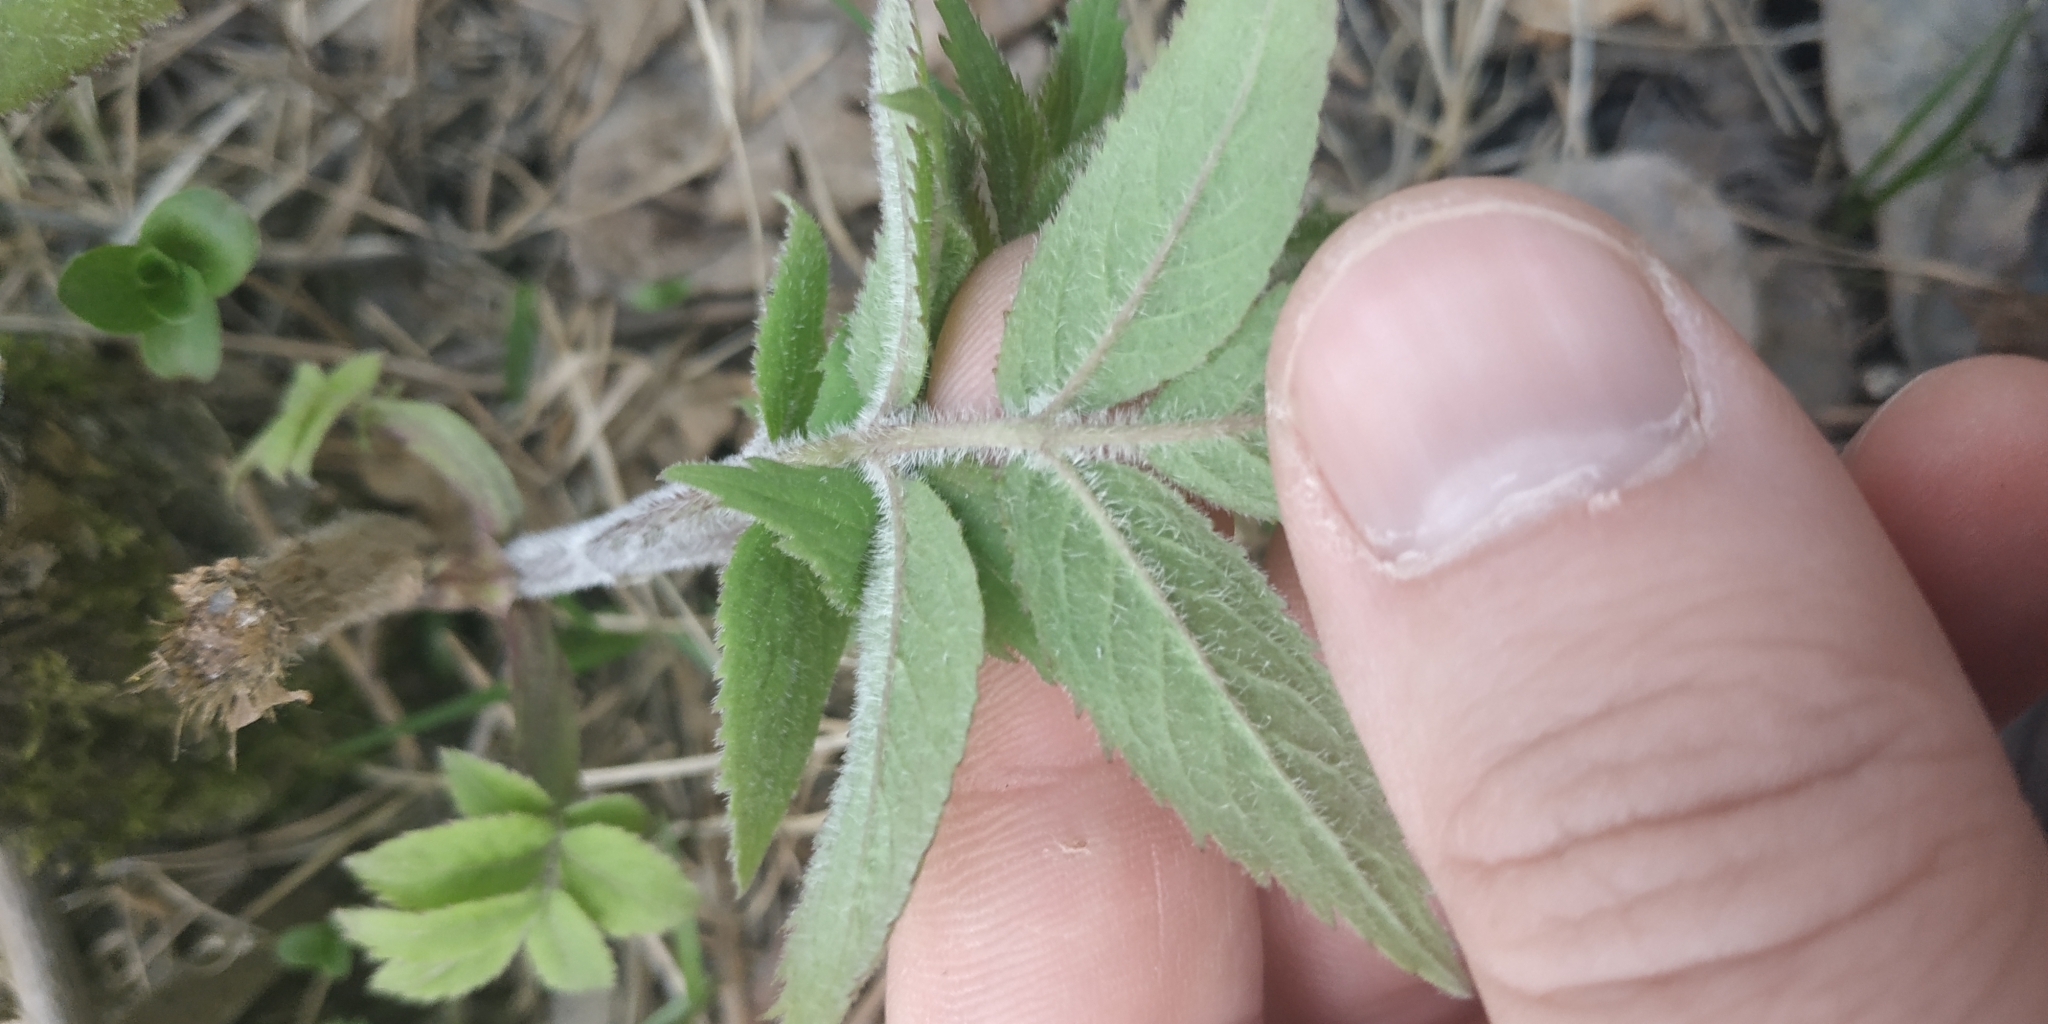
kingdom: Plantae
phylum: Tracheophyta
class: Magnoliopsida
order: Dipsacales
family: Viburnaceae
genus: Sambucus
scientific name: Sambucus sibirica
